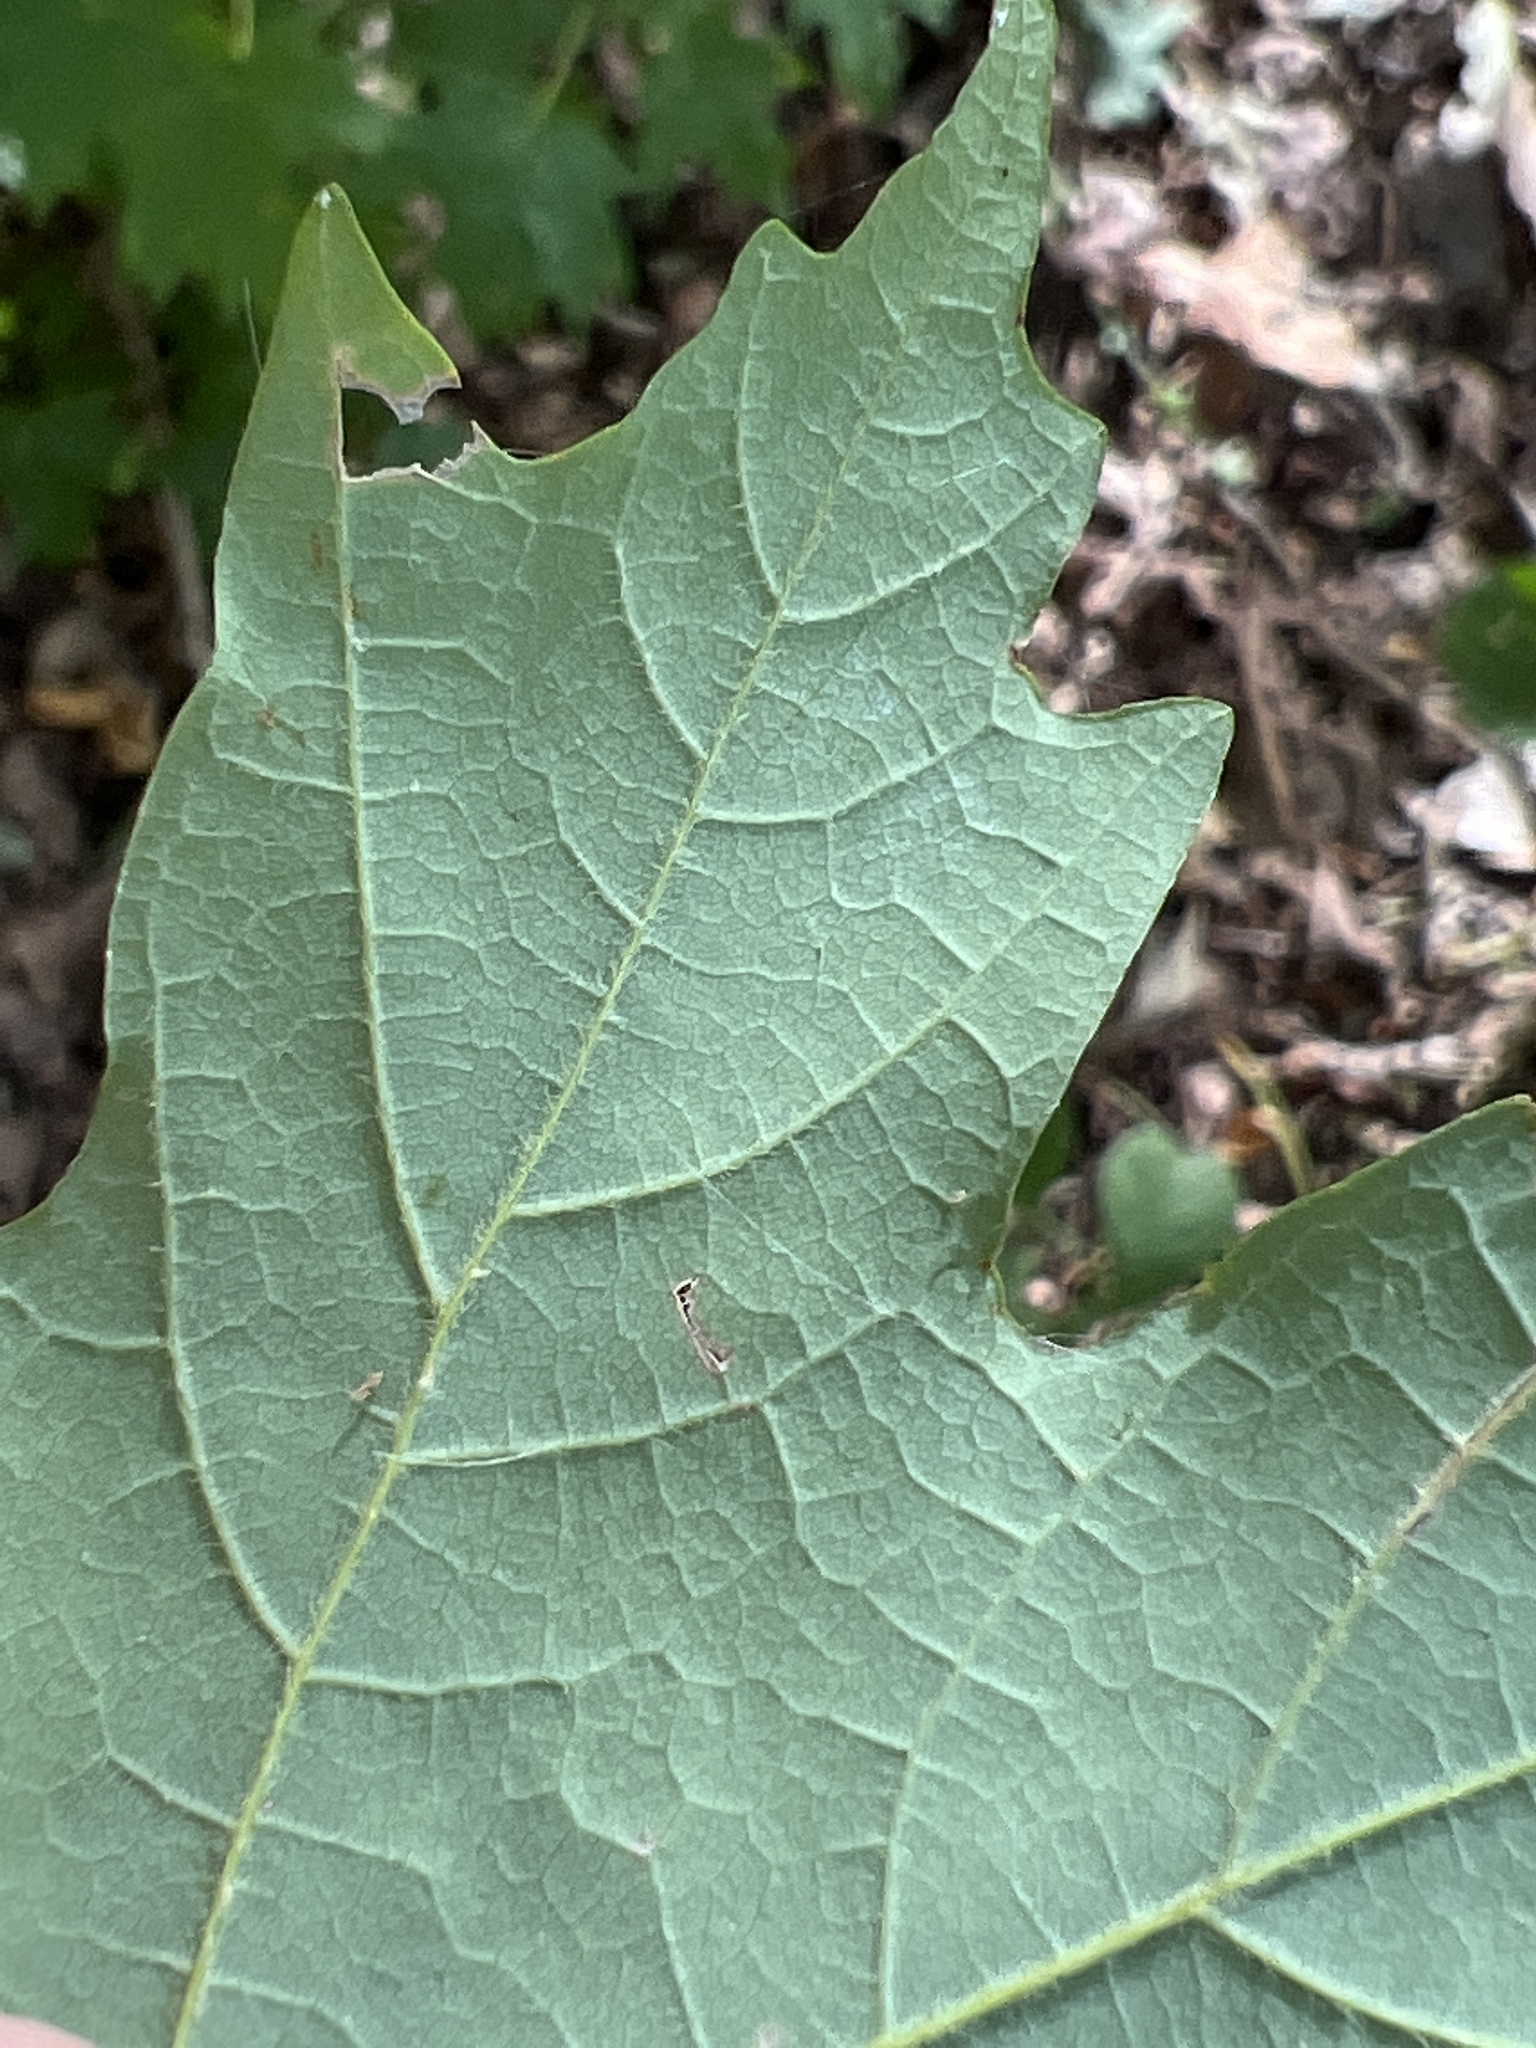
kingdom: Plantae
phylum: Tracheophyta
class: Magnoliopsida
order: Sapindales
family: Sapindaceae
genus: Acer
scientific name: Acer floridanum
